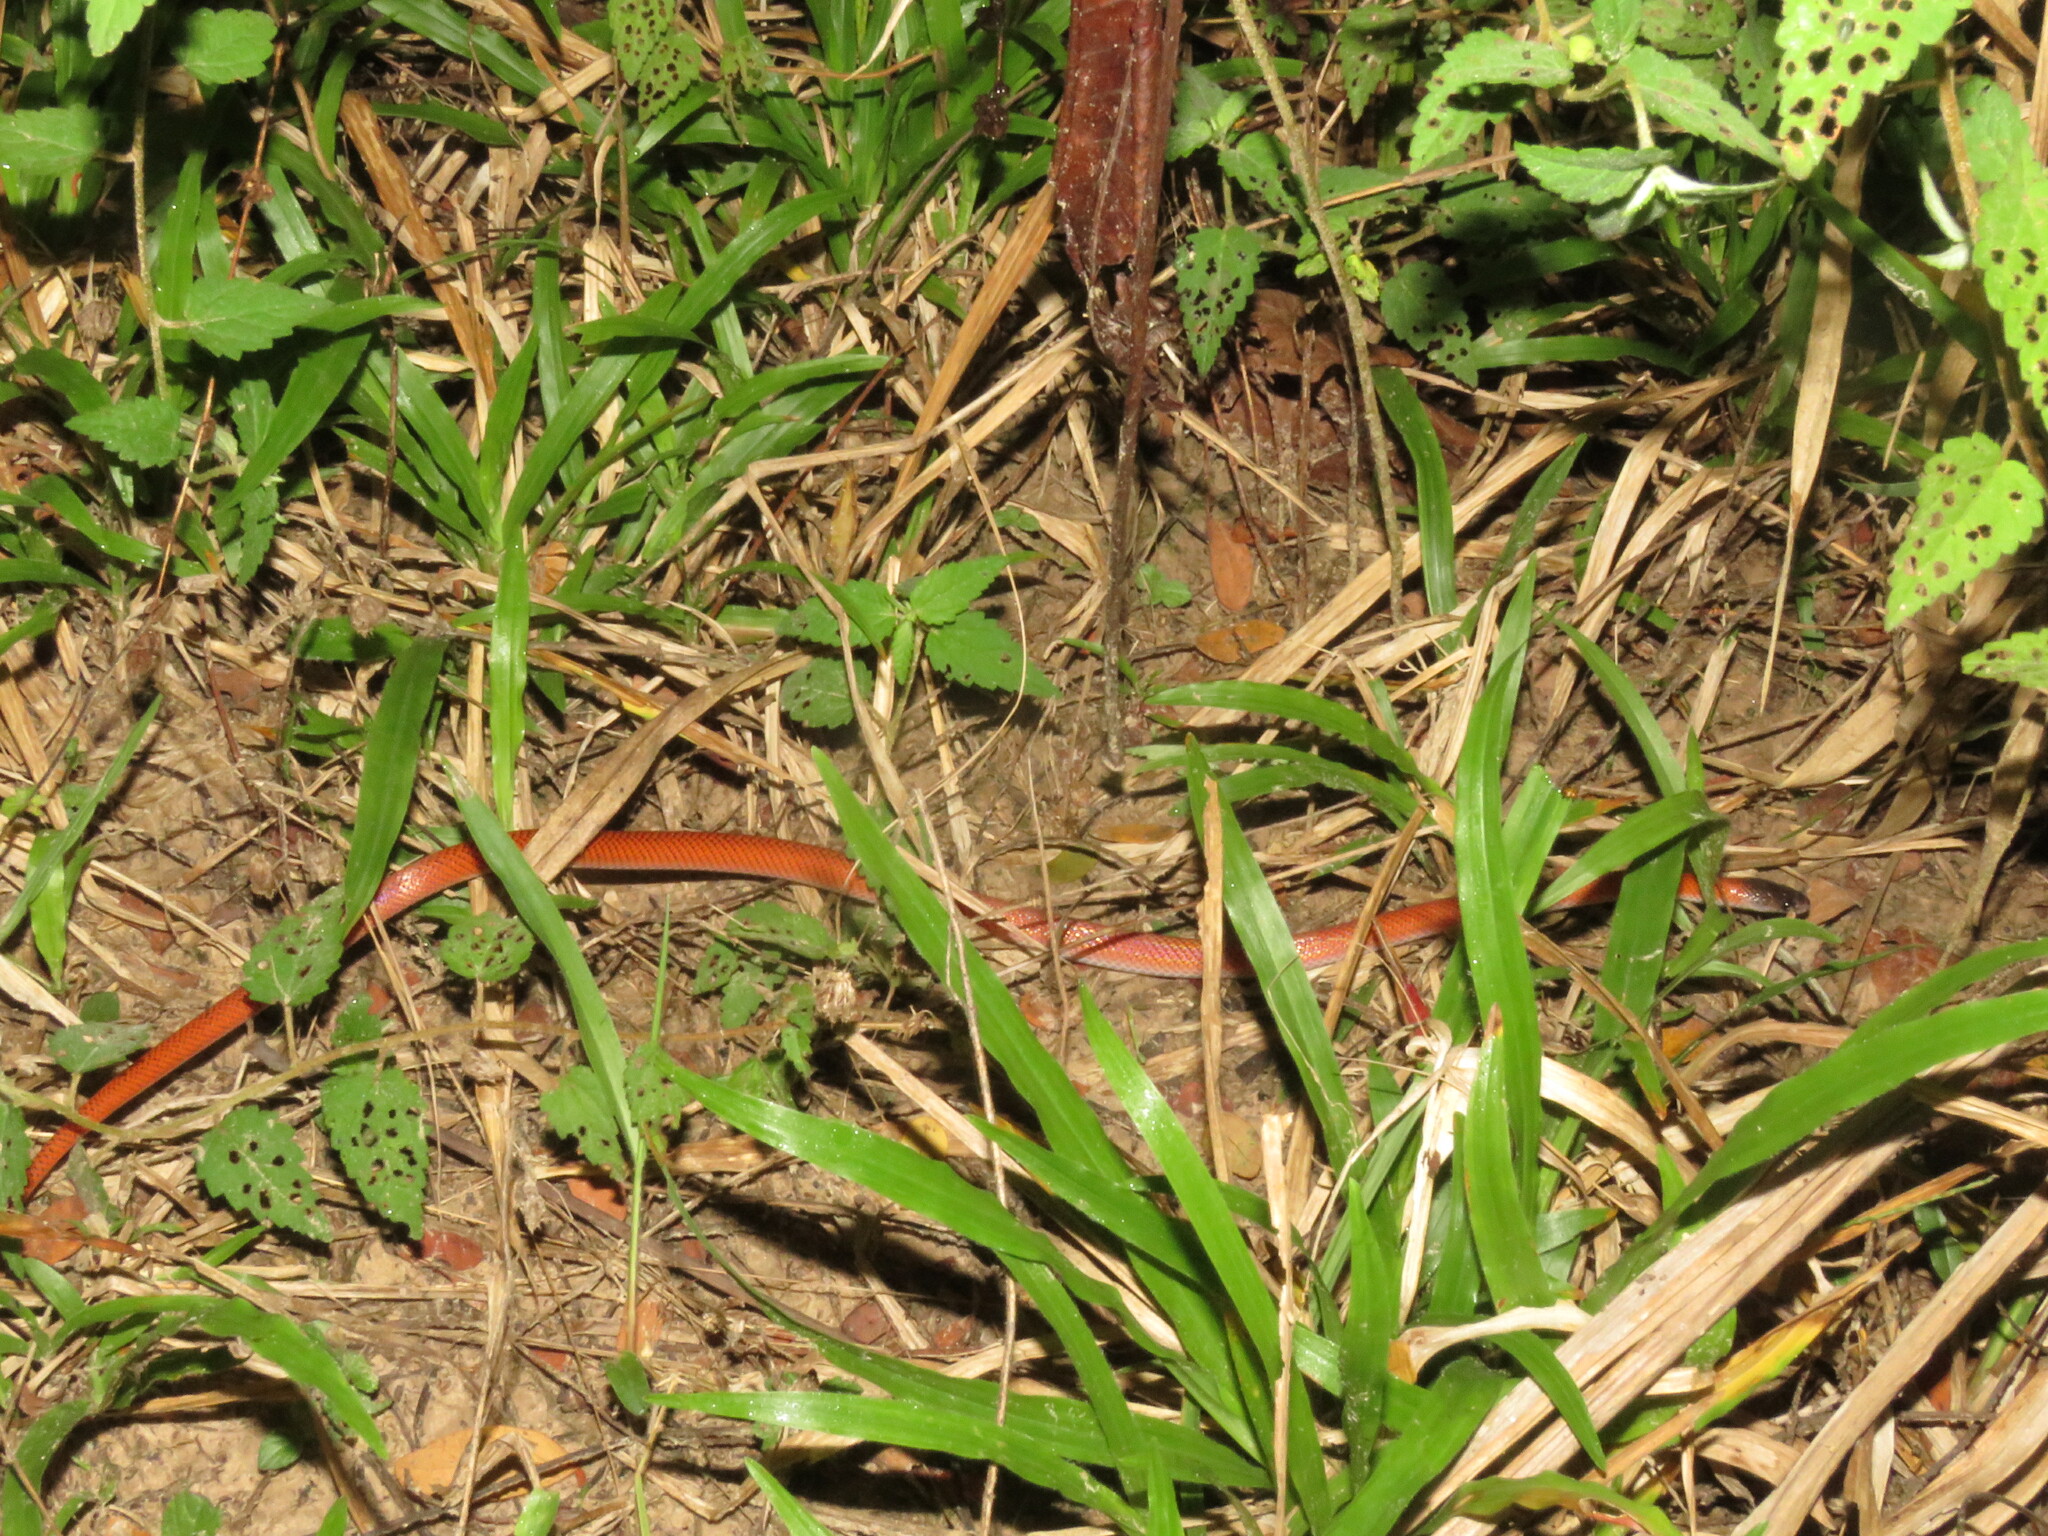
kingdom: Animalia
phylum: Chordata
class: Squamata
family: Colubridae
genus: Oxyrhopus
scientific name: Oxyrhopus melanogenys
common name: Tschudi's false coral snake
